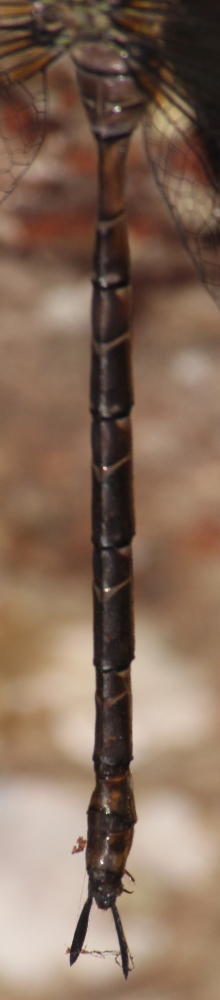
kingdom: Animalia
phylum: Arthropoda
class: Insecta
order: Odonata
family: Aeshnidae
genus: Gynacantha
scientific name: Gynacantha usambarica
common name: Eastern duskhawker
